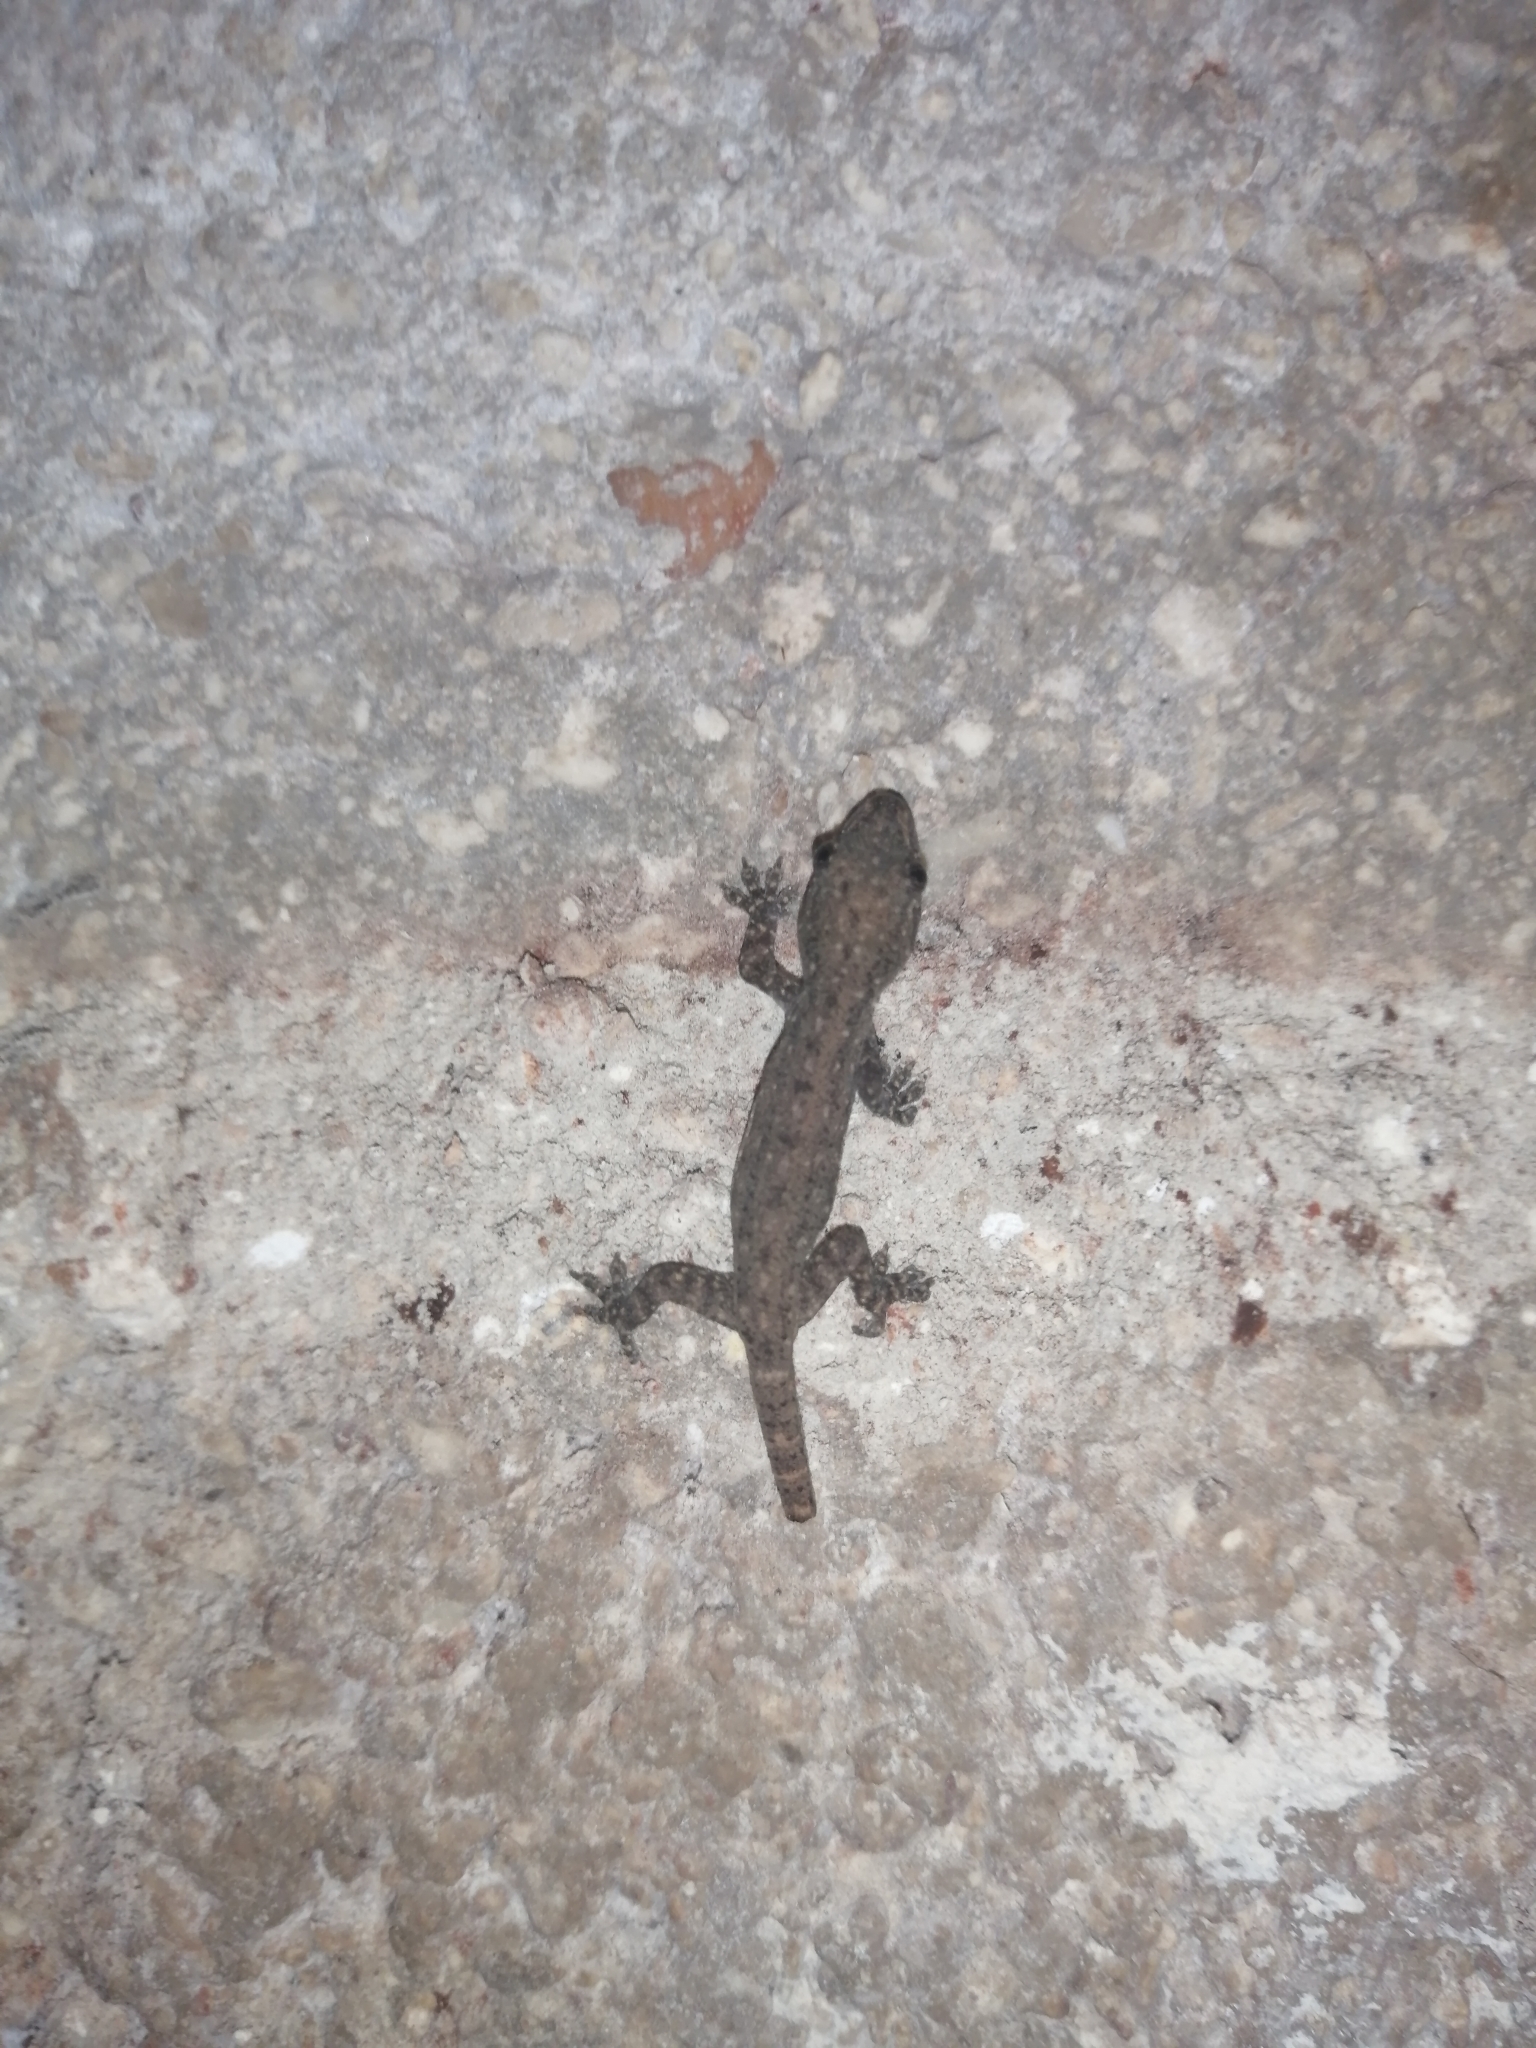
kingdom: Animalia
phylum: Chordata
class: Squamata
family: Gekkonidae
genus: Hemidactylus
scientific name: Hemidactylus frenatus
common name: Common house gecko
